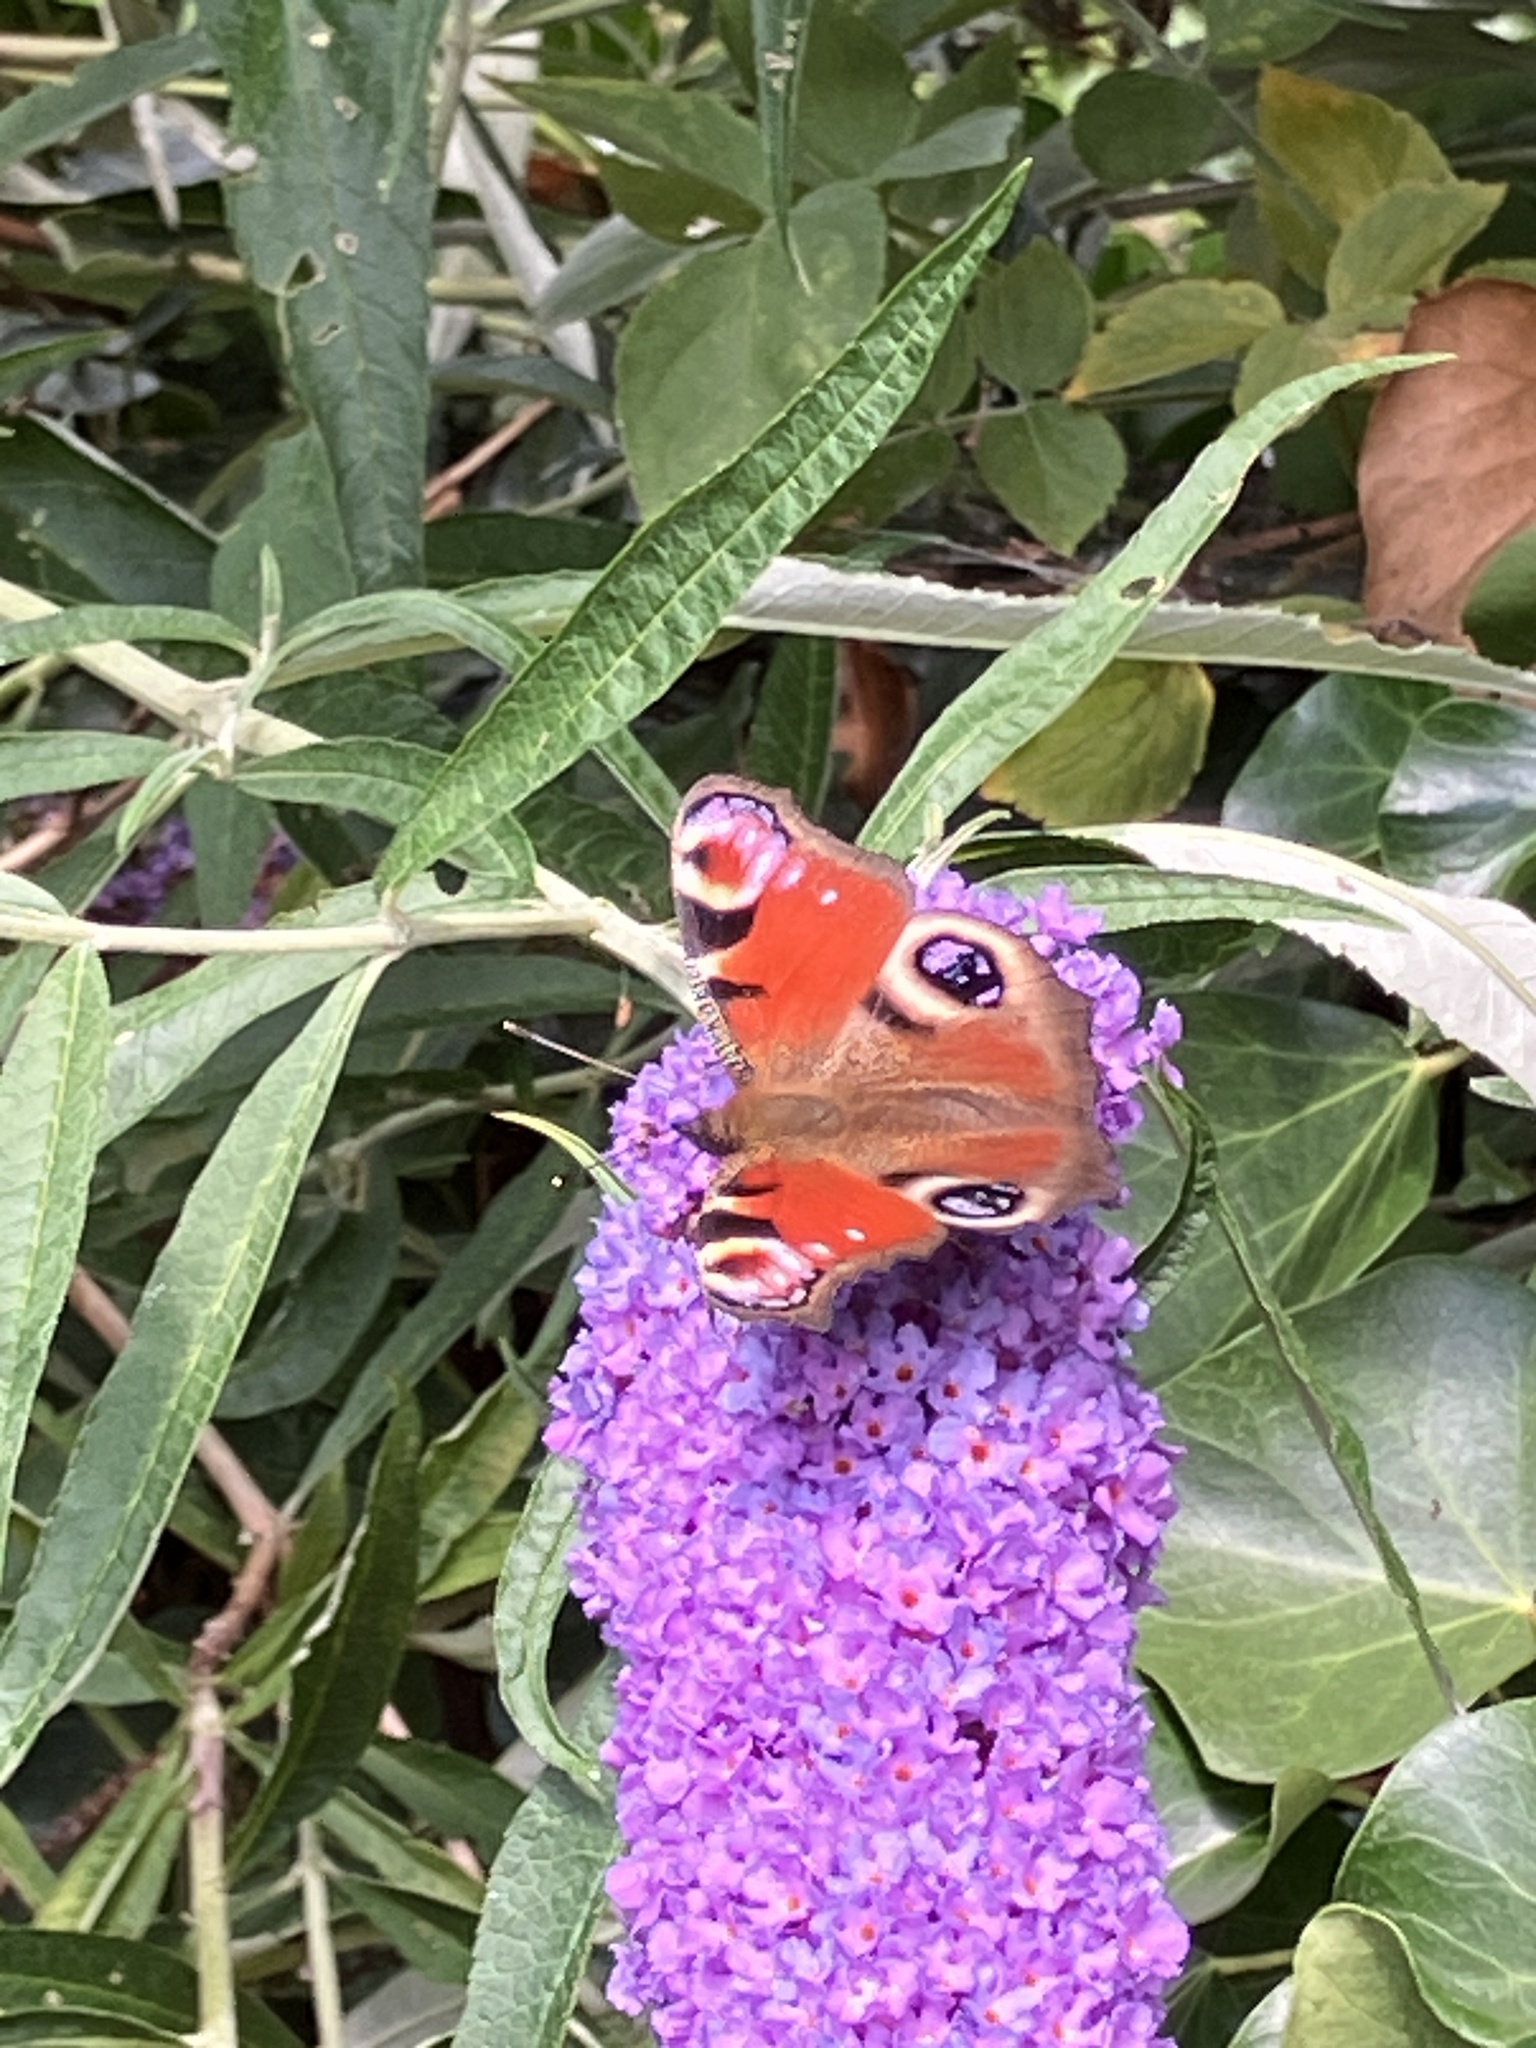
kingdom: Animalia
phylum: Arthropoda
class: Insecta
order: Lepidoptera
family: Nymphalidae
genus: Aglais
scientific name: Aglais io
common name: Peacock
